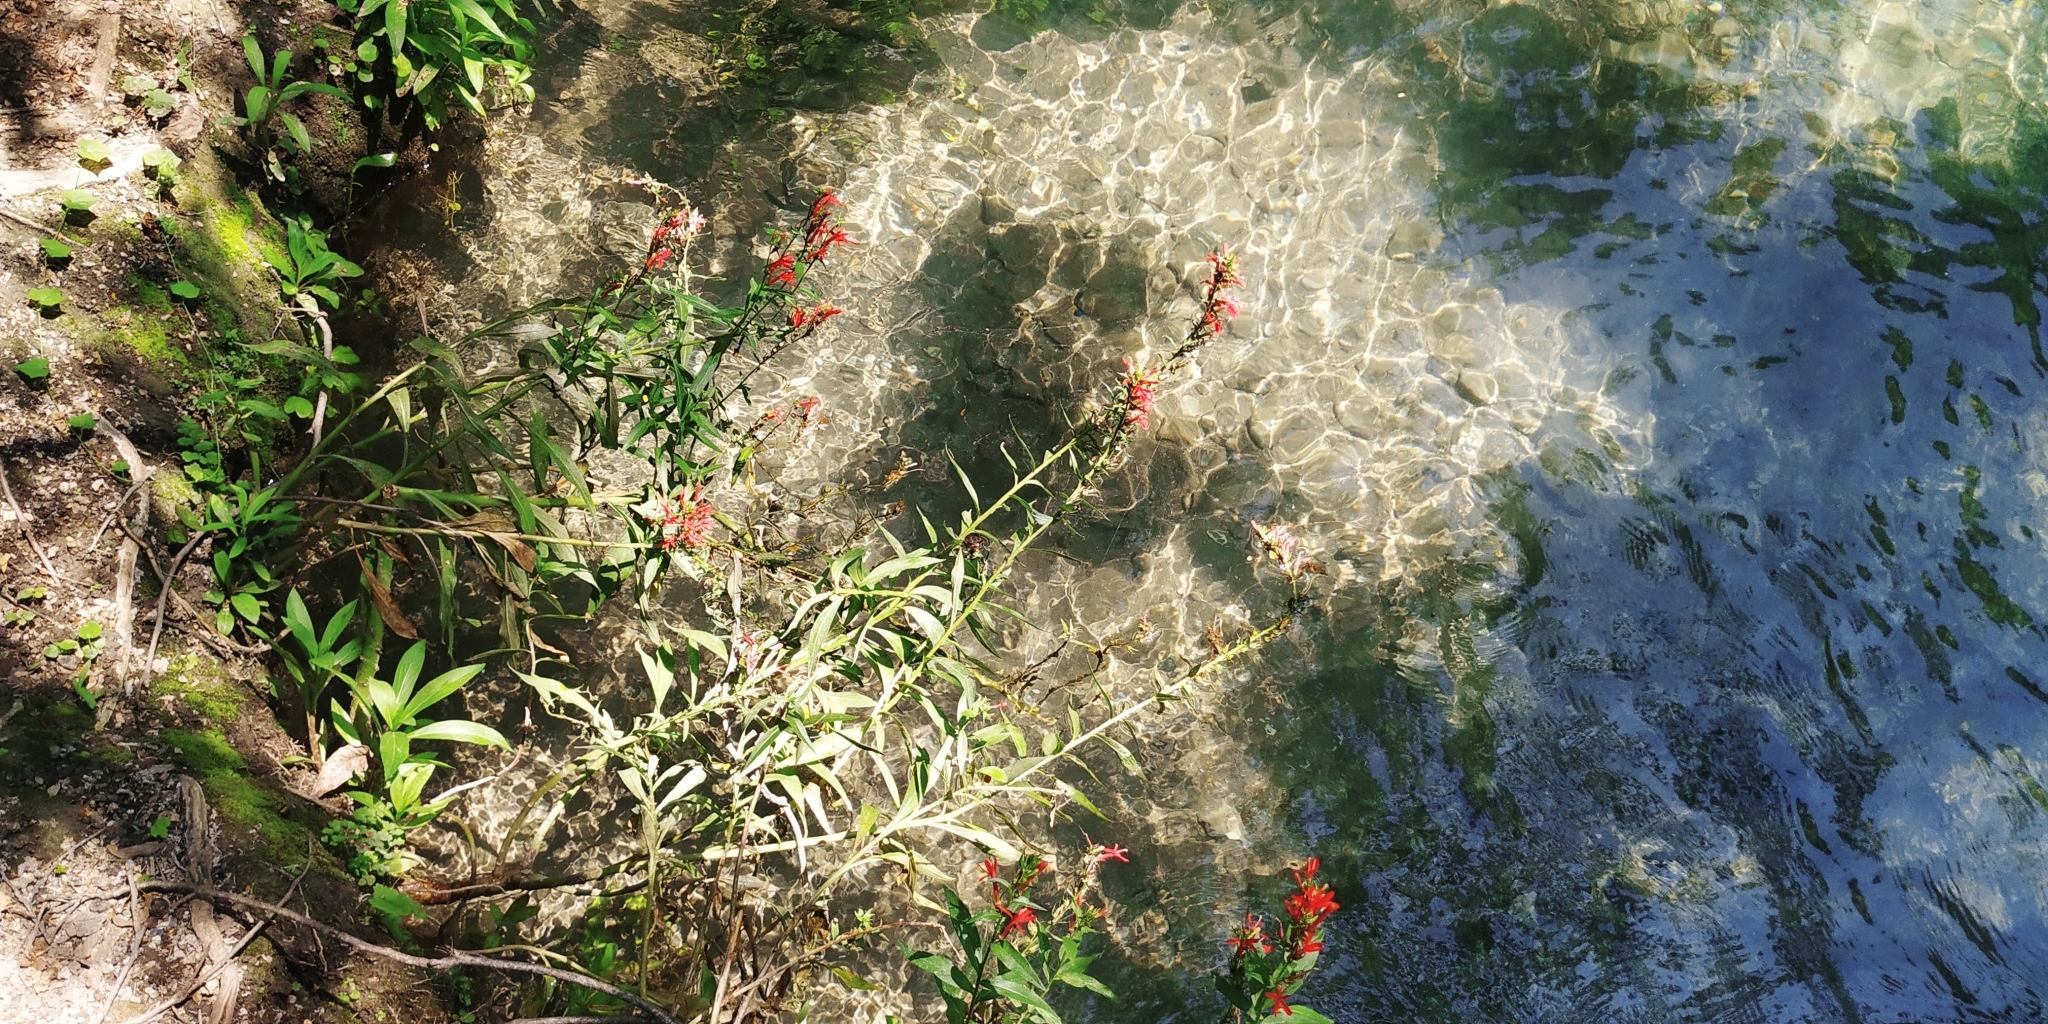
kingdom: Plantae
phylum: Tracheophyta
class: Magnoliopsida
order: Asterales
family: Campanulaceae
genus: Lobelia
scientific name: Lobelia cardinalis
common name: Cardinal flower
